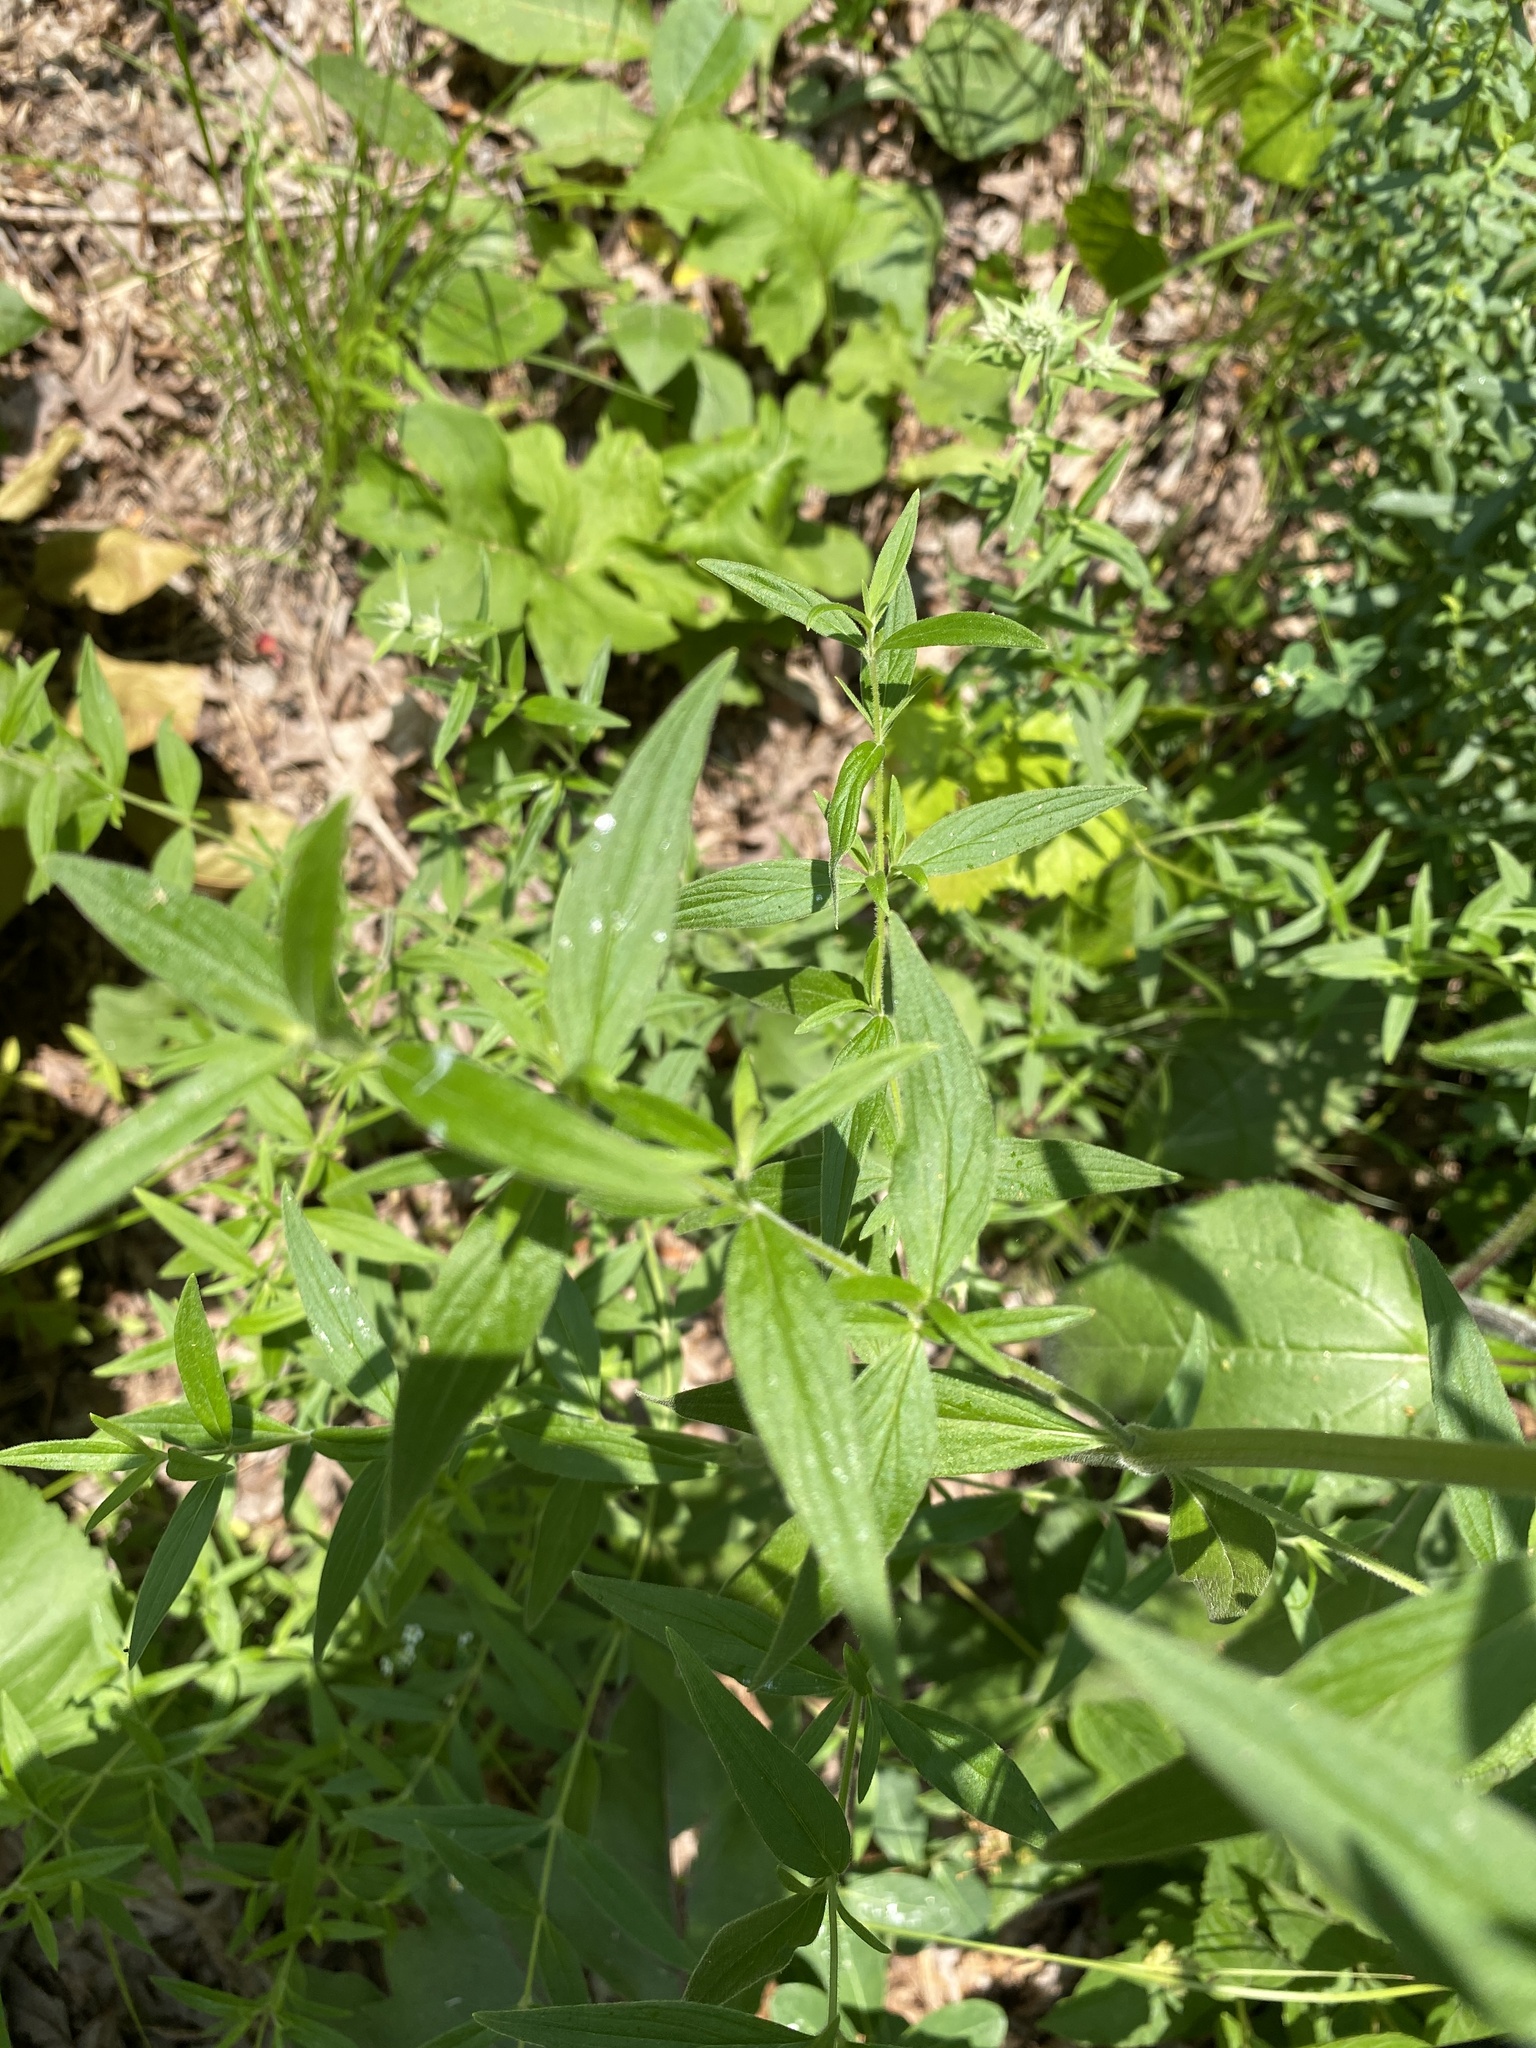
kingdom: Plantae
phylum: Tracheophyta
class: Magnoliopsida
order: Lamiales
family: Lamiaceae
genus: Pycnanthemum
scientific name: Pycnanthemum verticillatum
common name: Whorled mountain-mint
